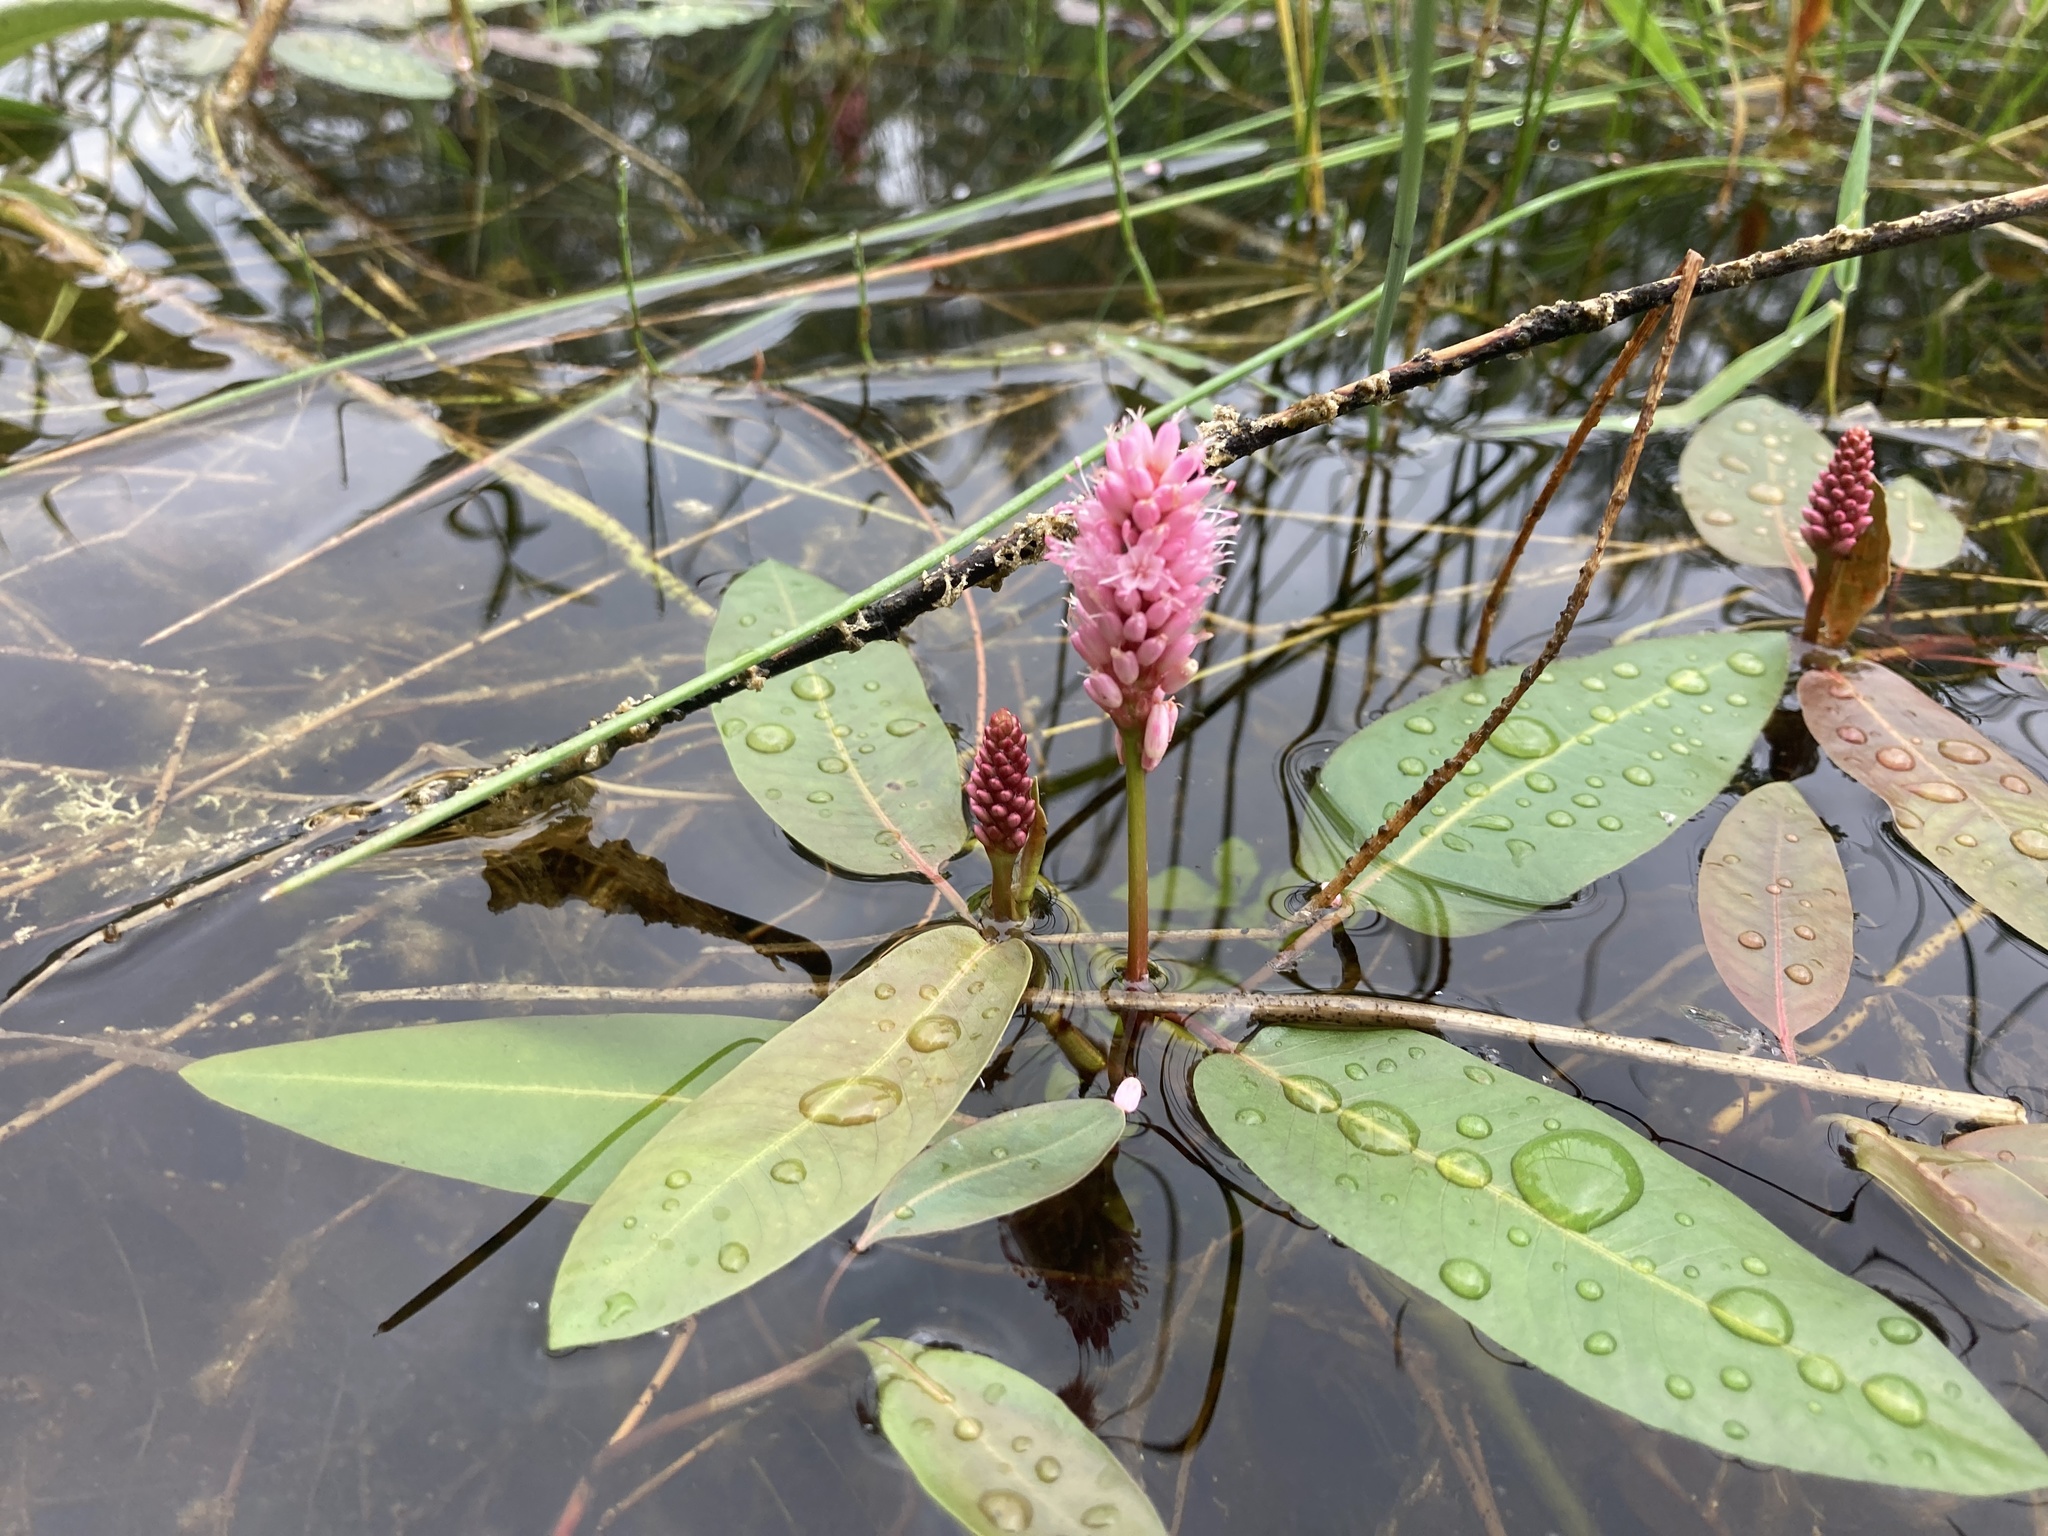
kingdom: Plantae
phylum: Tracheophyta
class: Magnoliopsida
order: Caryophyllales
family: Polygonaceae
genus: Persicaria
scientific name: Persicaria amphibia
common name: Amphibious bistort
